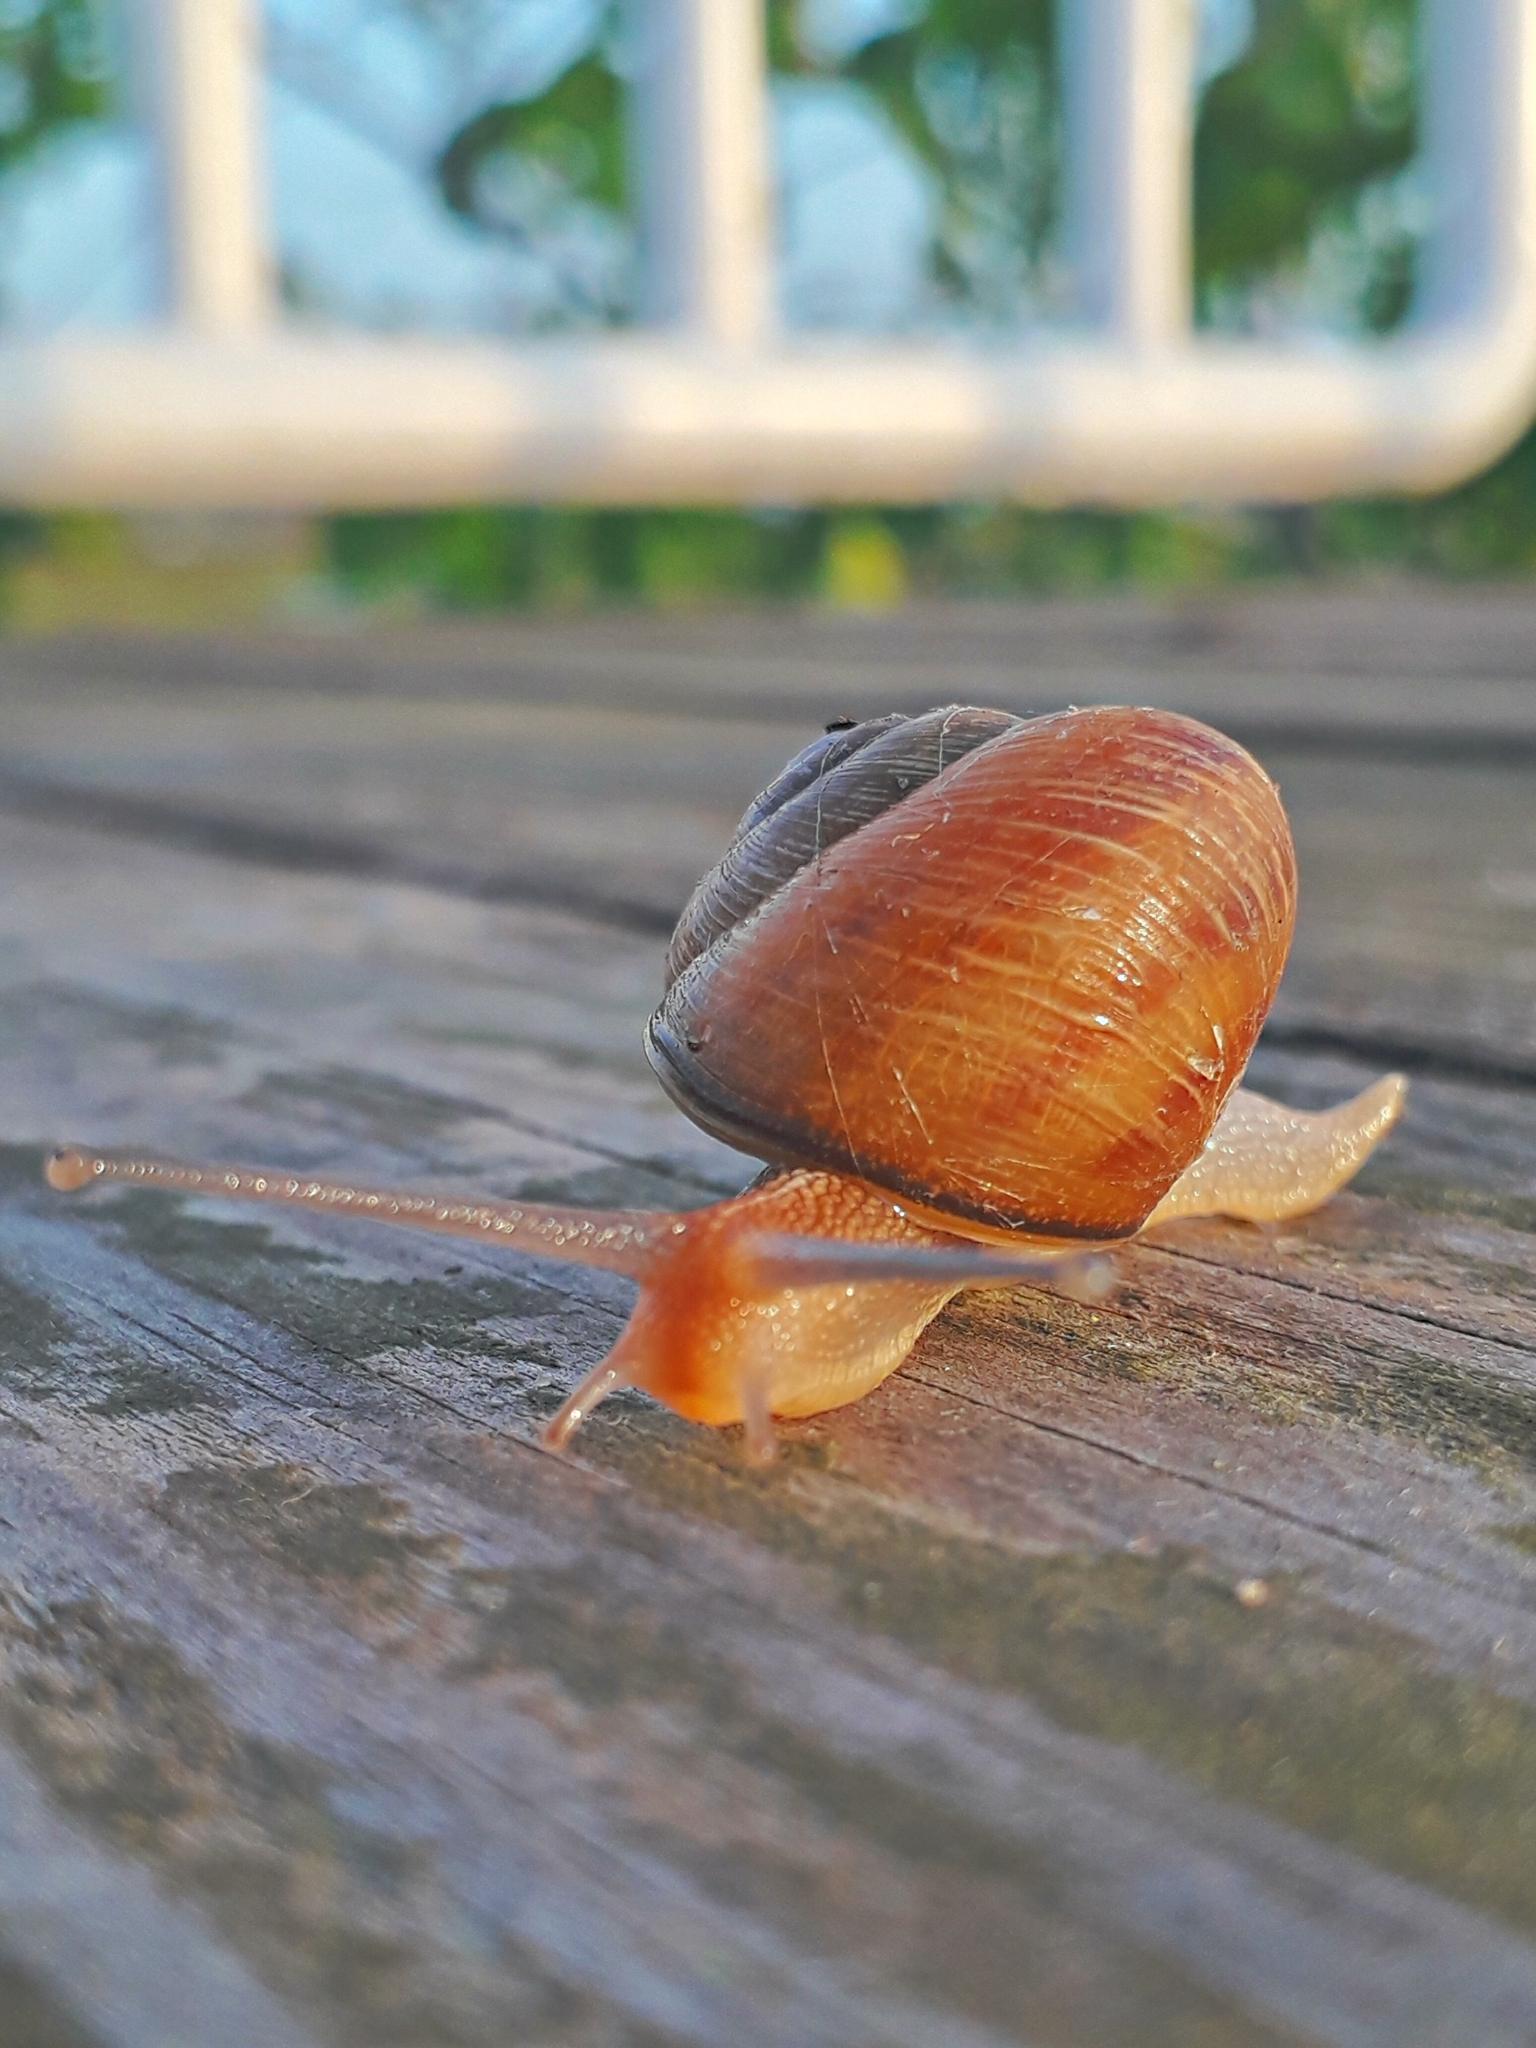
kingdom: Animalia
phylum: Mollusca
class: Gastropoda
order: Stylommatophora
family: Helicidae
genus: Caucasotachea
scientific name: Caucasotachea leucoranea
